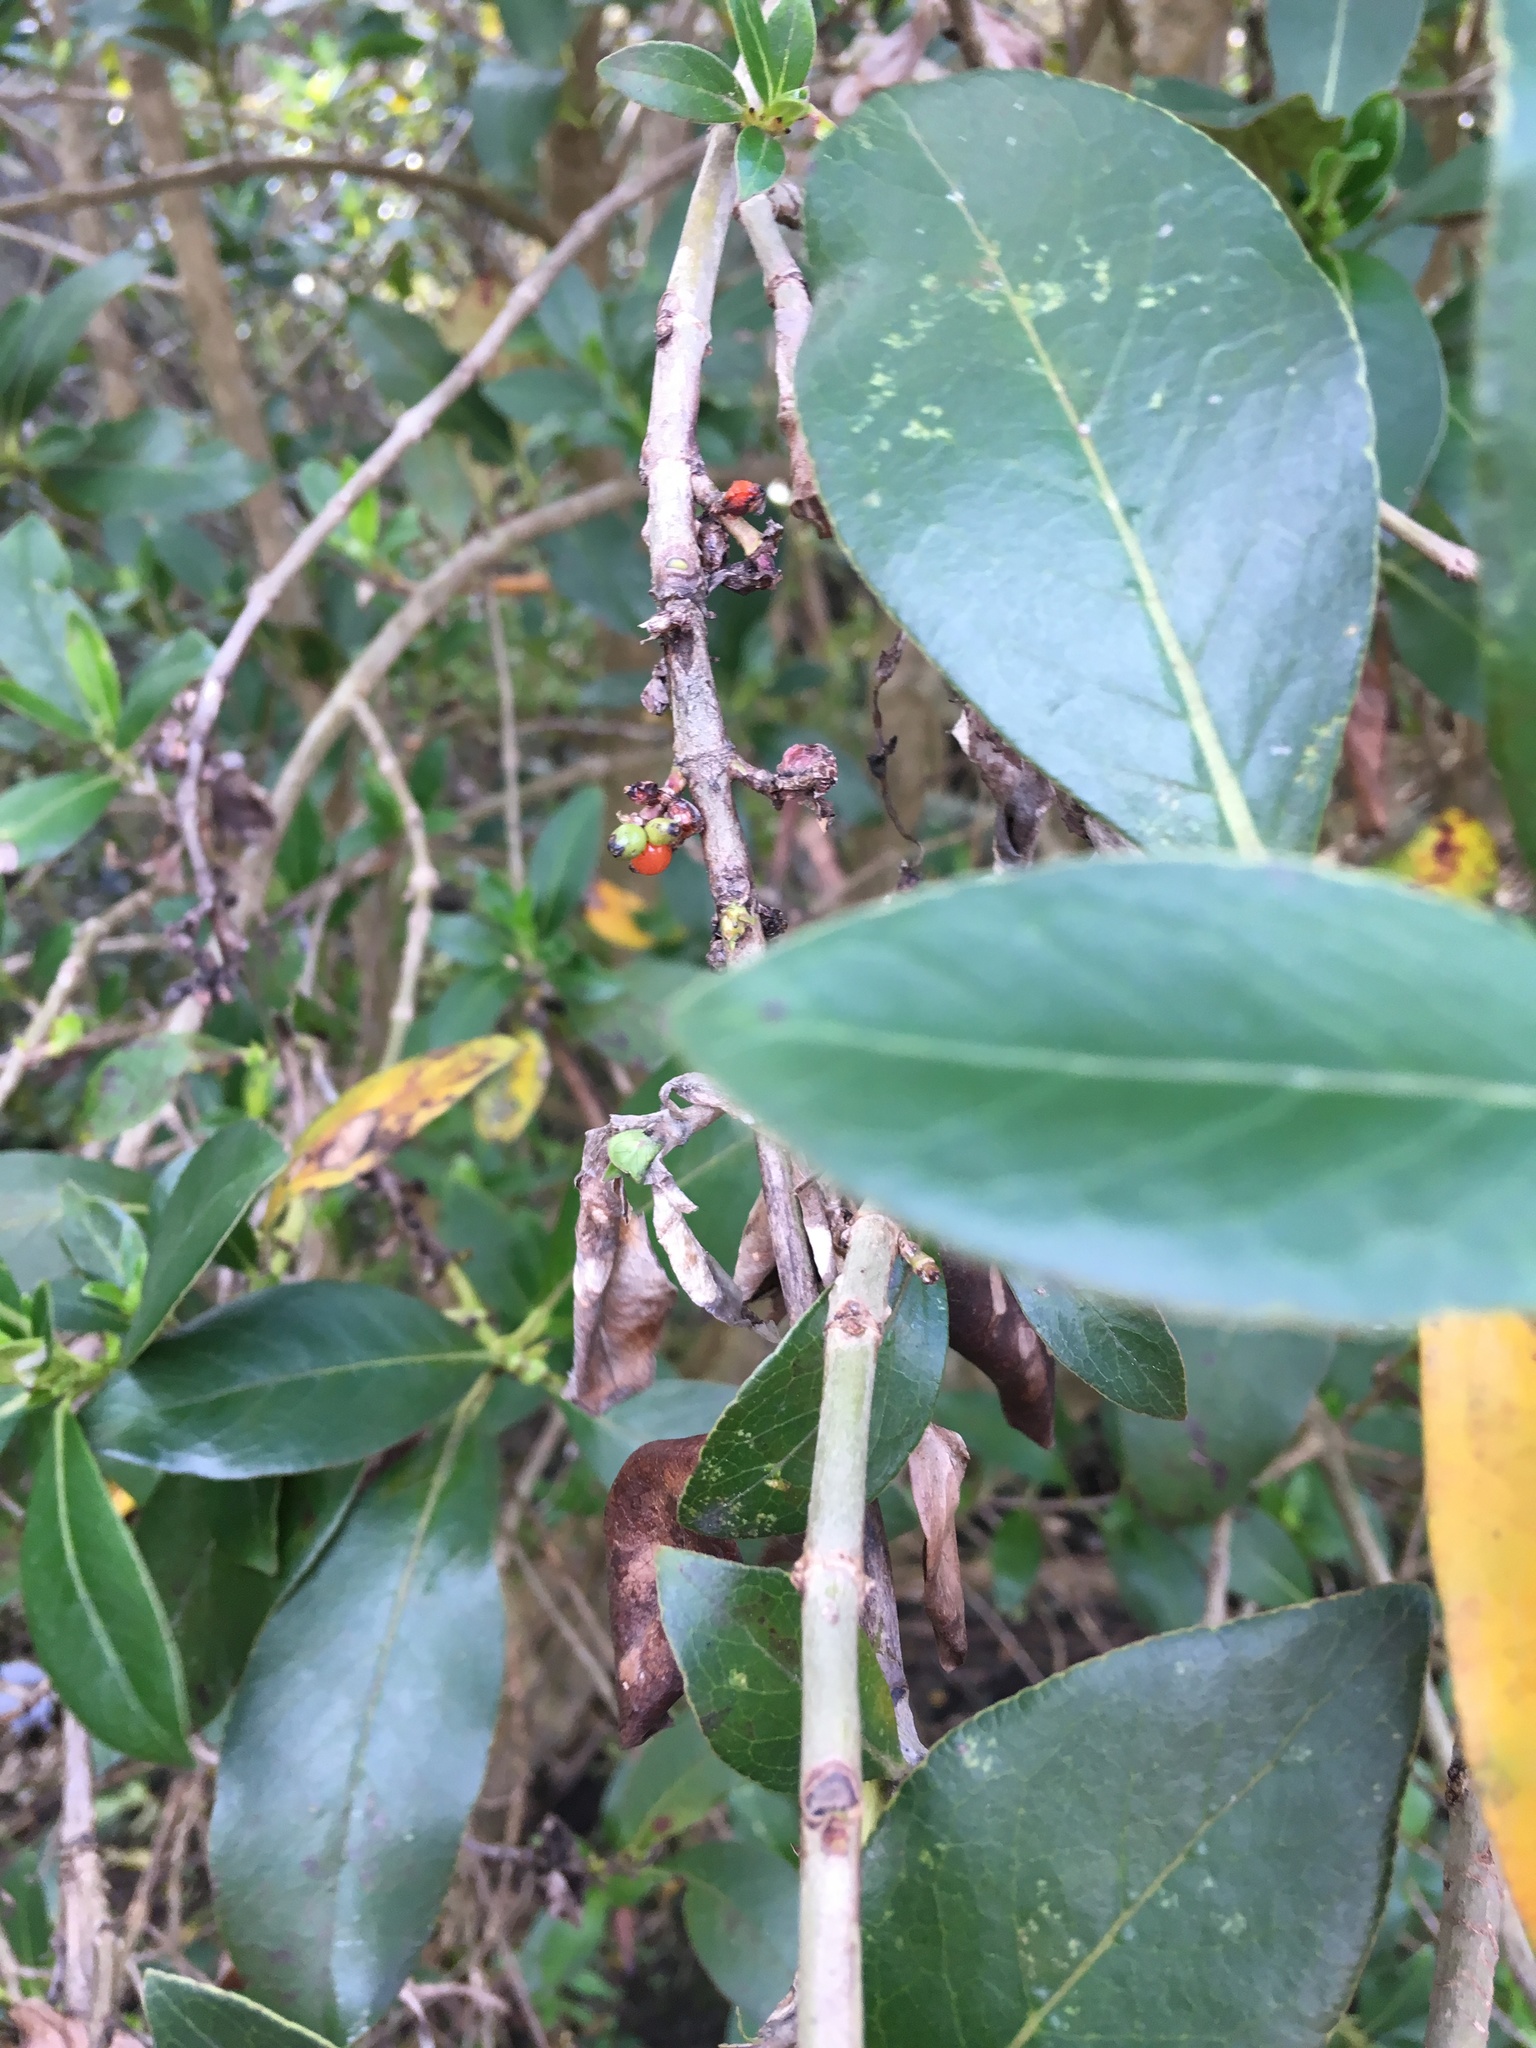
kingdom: Plantae
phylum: Tracheophyta
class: Magnoliopsida
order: Gentianales
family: Rubiaceae
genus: Coprosma
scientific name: Coprosma robusta
